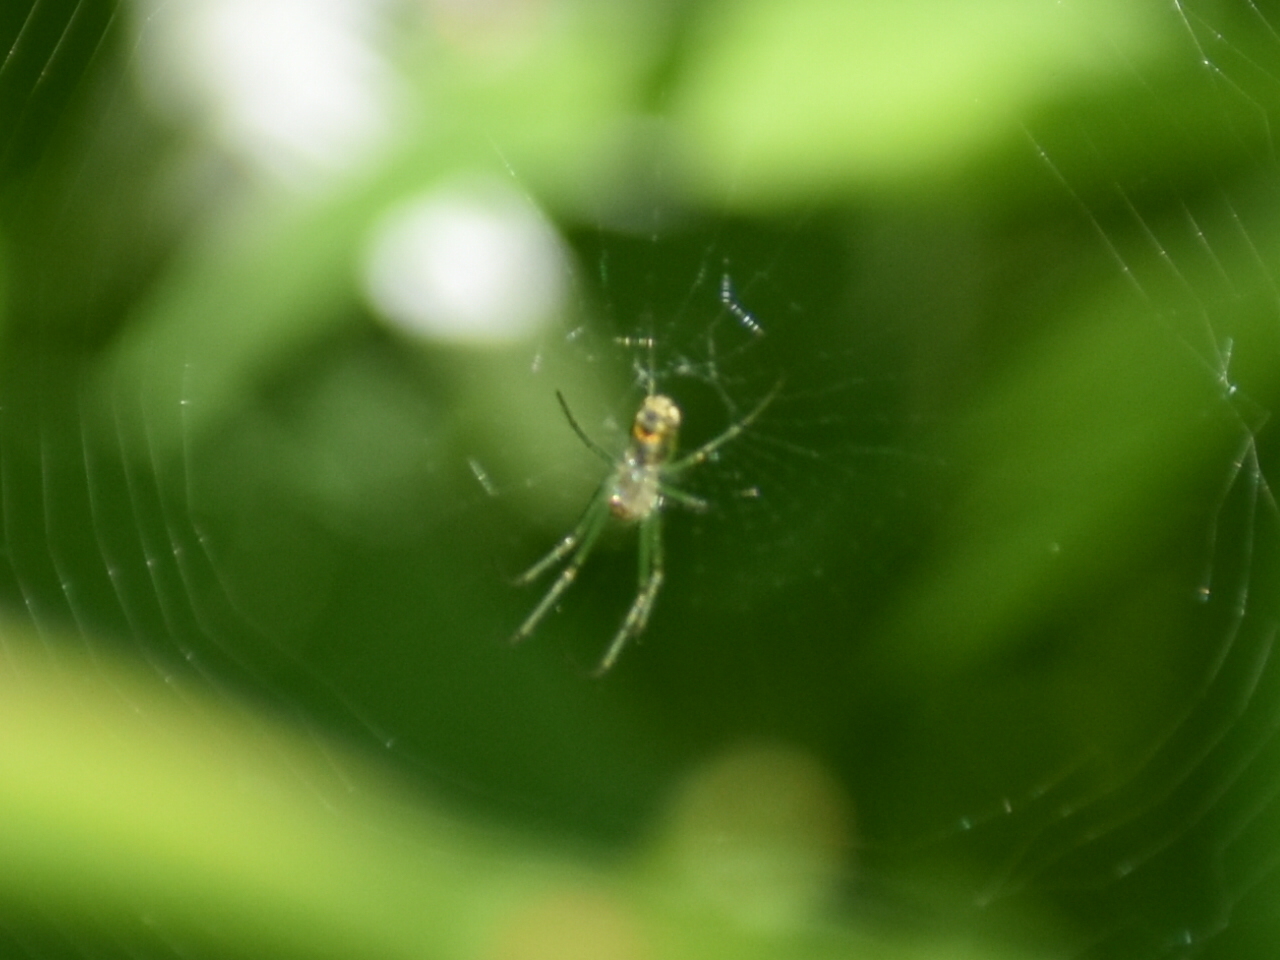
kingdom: Animalia
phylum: Arthropoda
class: Arachnida
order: Araneae
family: Tetragnathidae
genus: Leucauge
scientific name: Leucauge venusta
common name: Longjawed orb weavers
